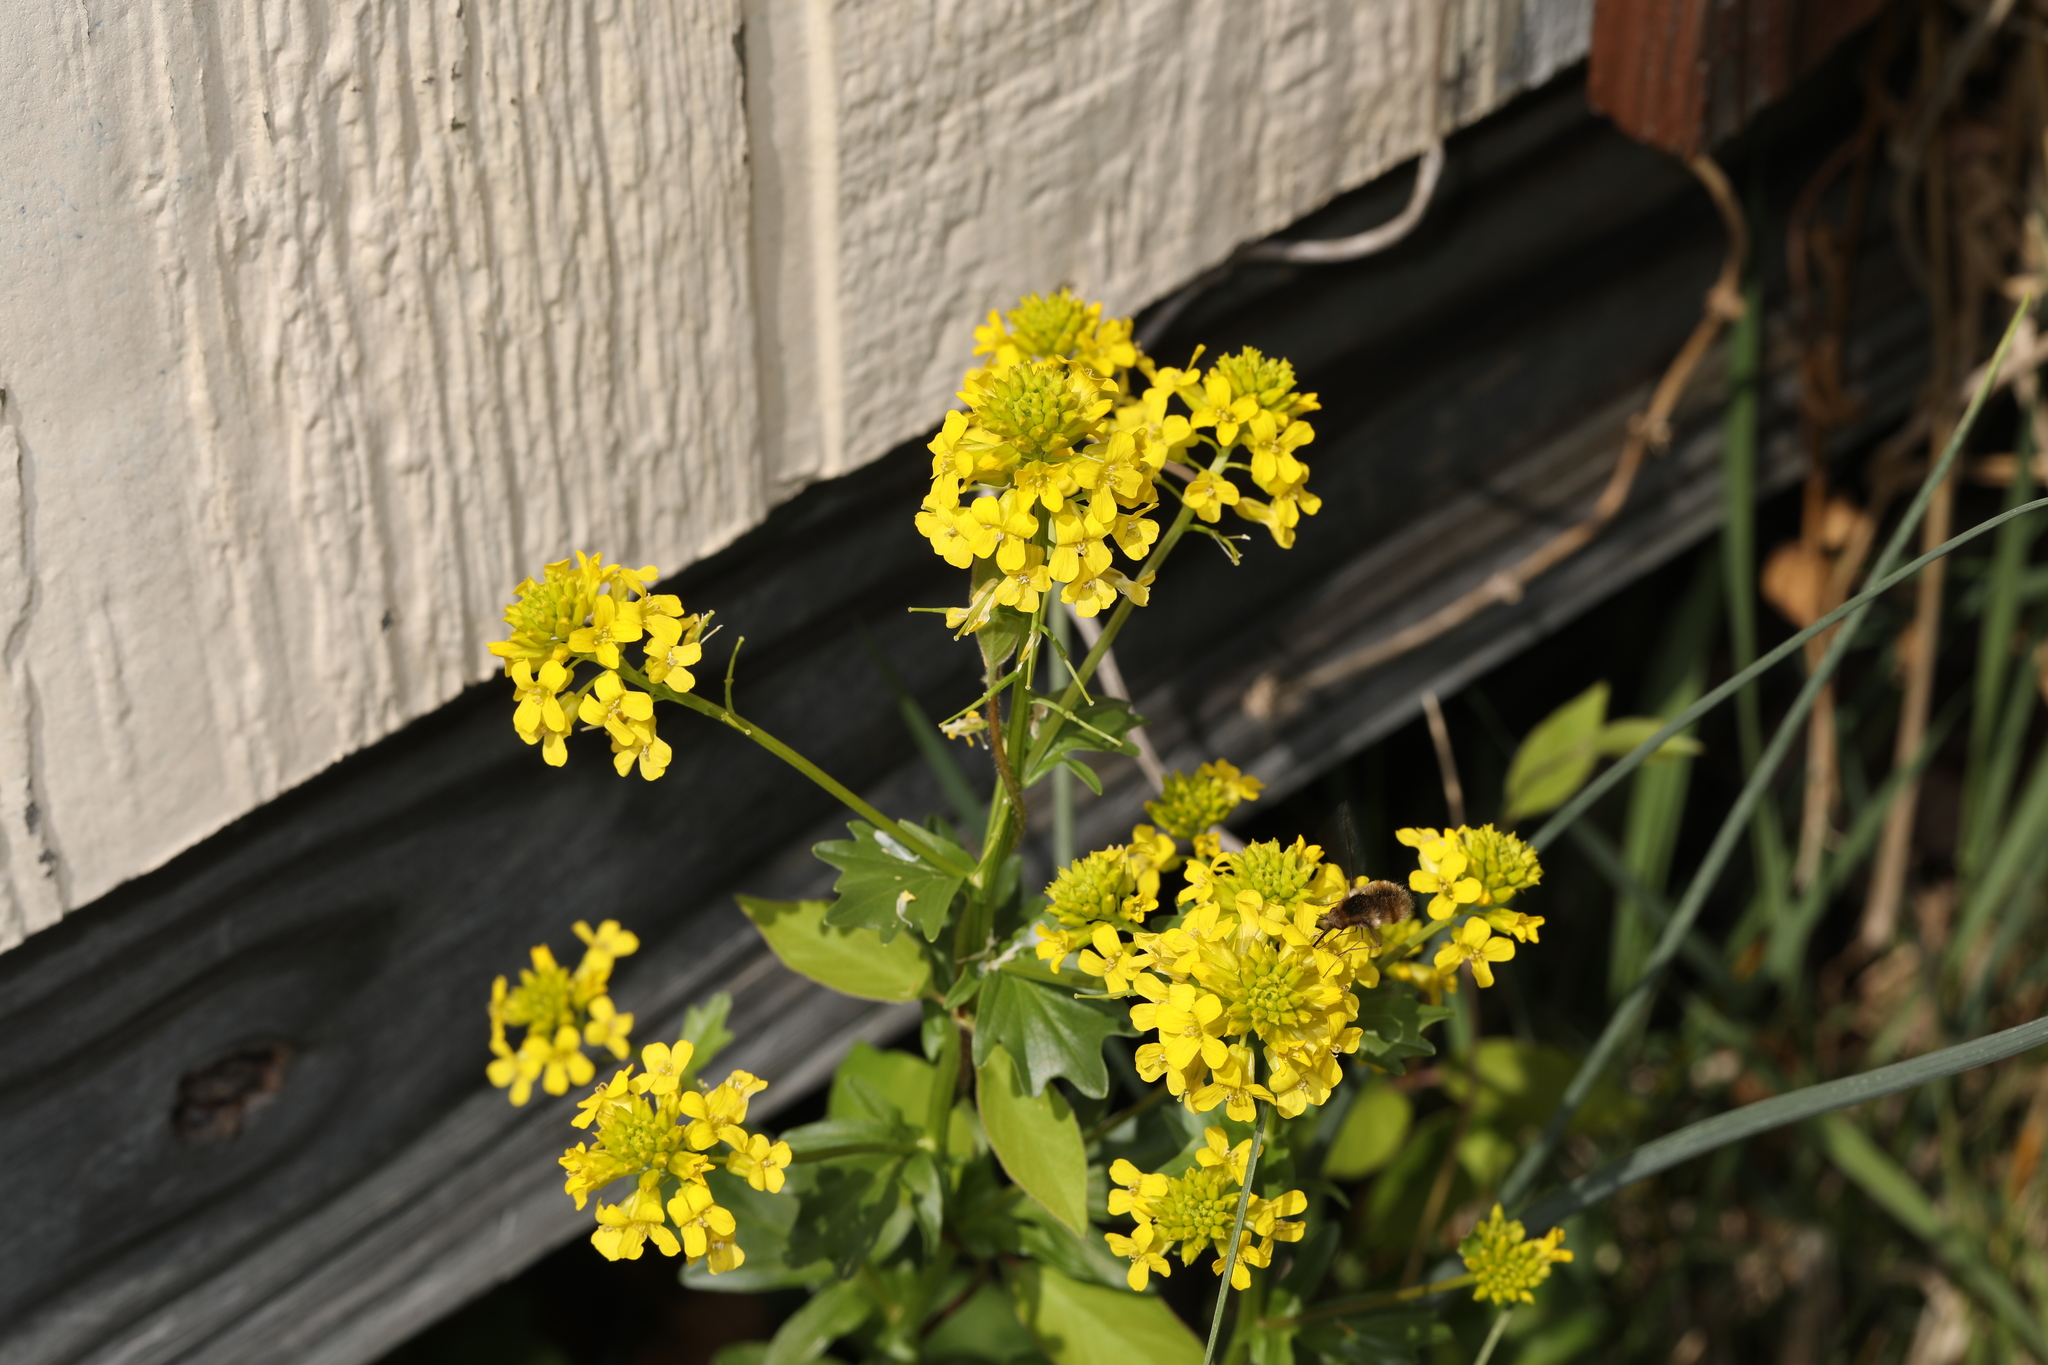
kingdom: Plantae
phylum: Tracheophyta
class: Magnoliopsida
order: Brassicales
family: Brassicaceae
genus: Barbarea
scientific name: Barbarea vulgaris
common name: Cressy-greens
